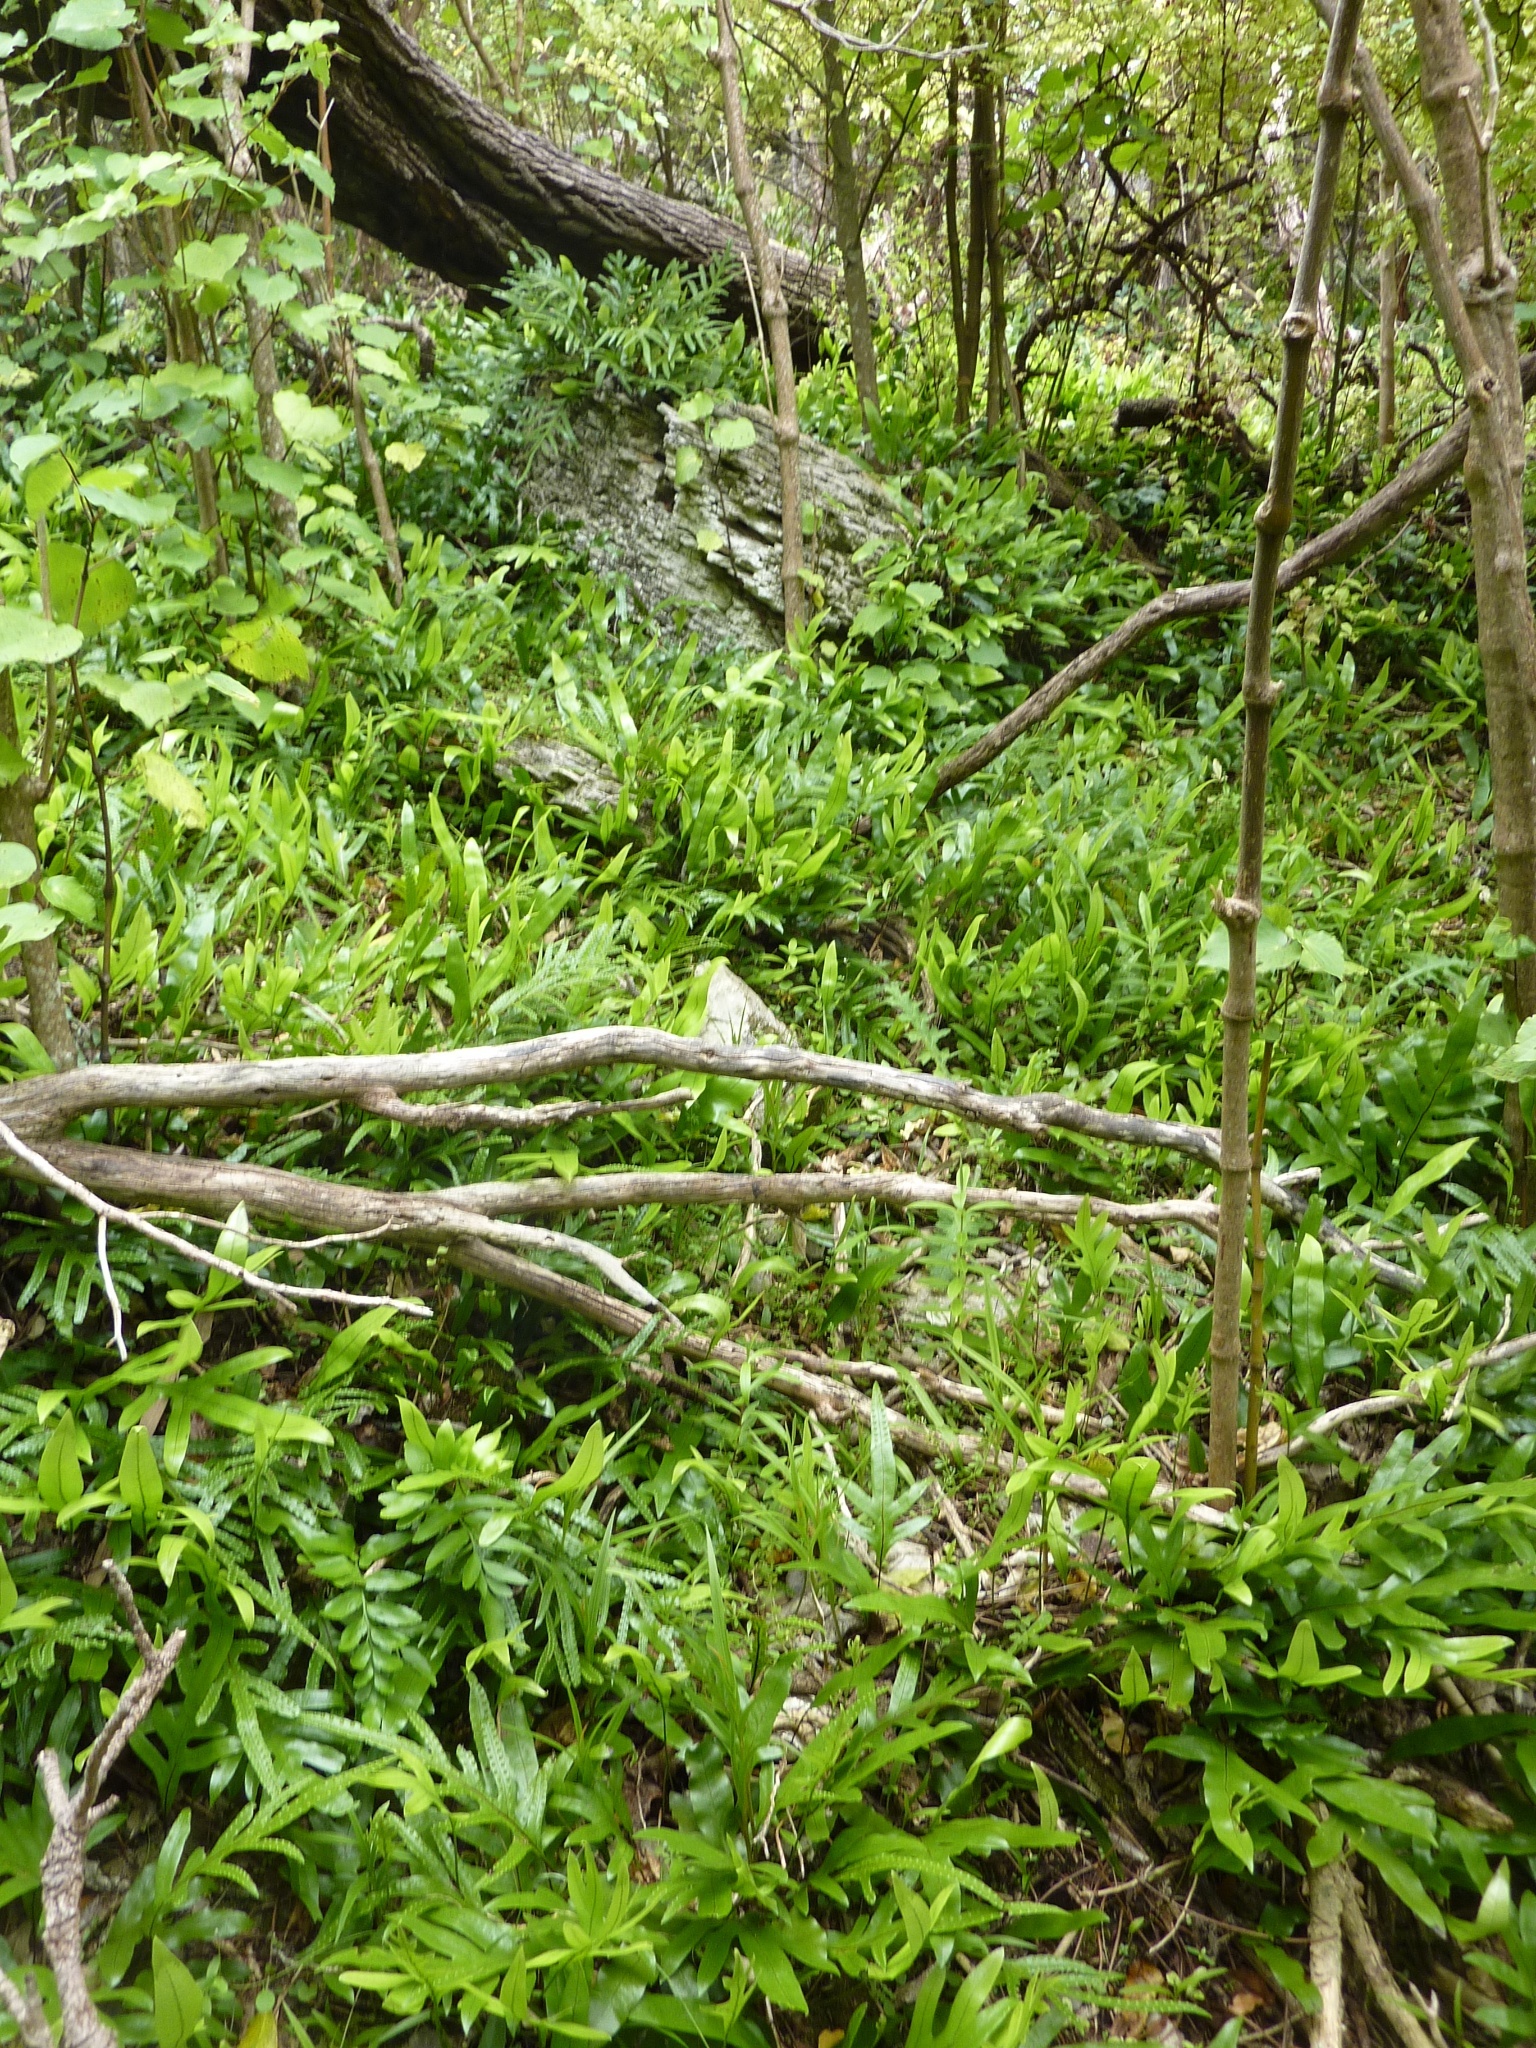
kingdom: Plantae
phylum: Tracheophyta
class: Polypodiopsida
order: Polypodiales
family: Polypodiaceae
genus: Lecanopteris
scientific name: Lecanopteris pustulata
